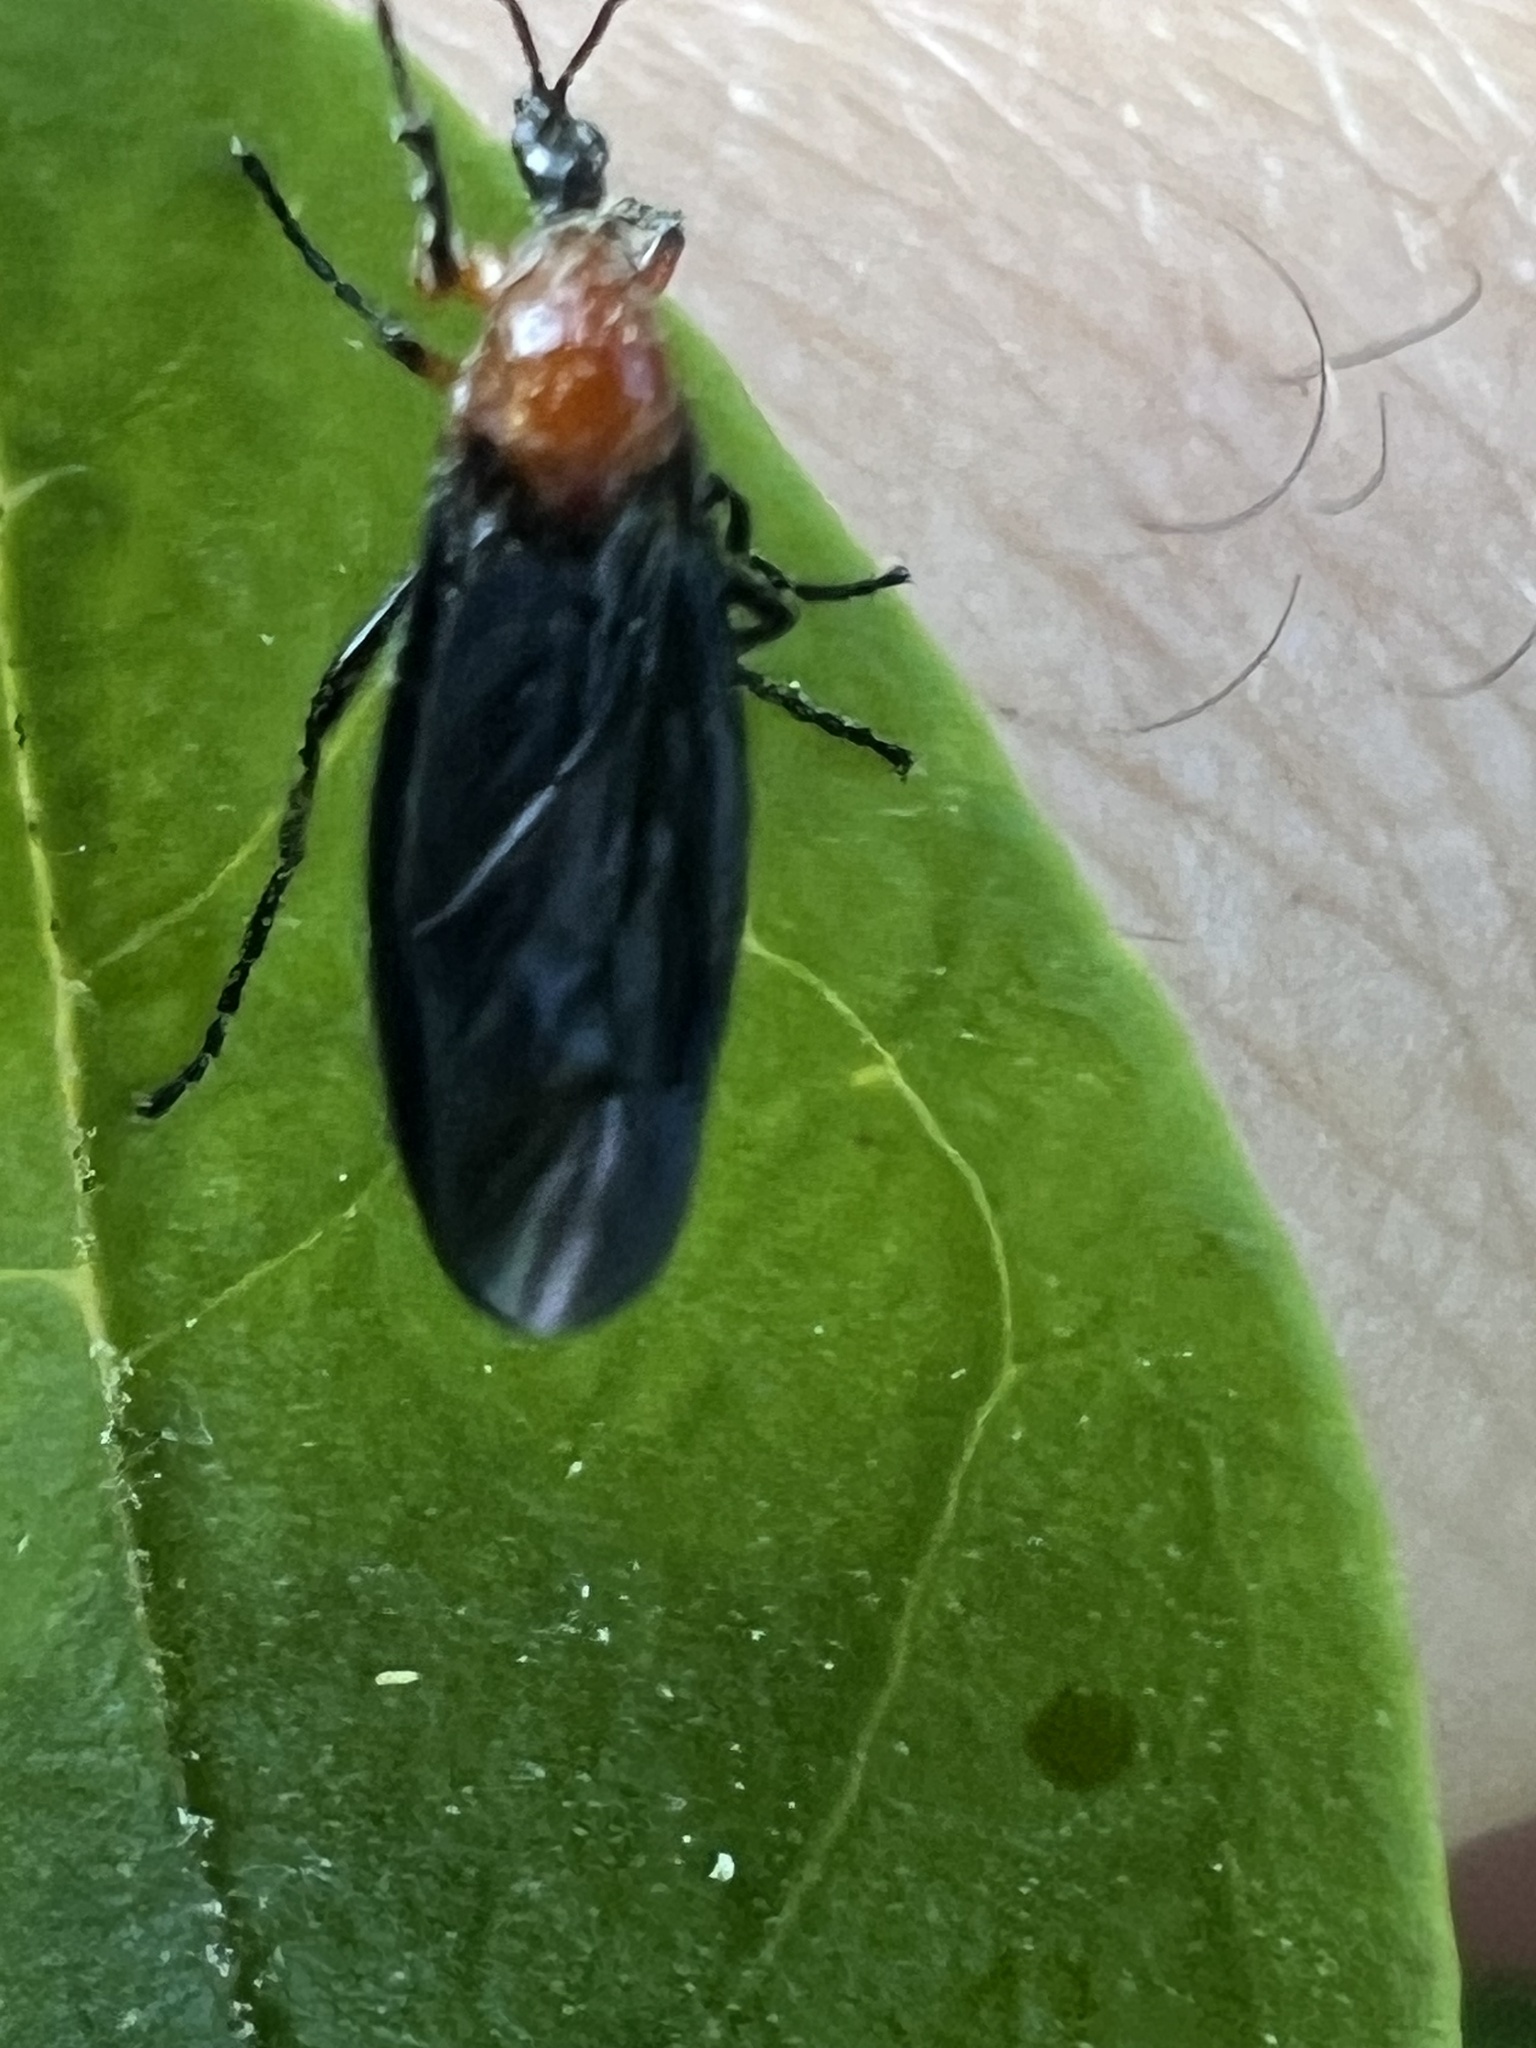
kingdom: Animalia
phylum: Arthropoda
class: Insecta
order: Diptera
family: Bibionidae
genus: Dilophus
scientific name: Dilophus spinipes
